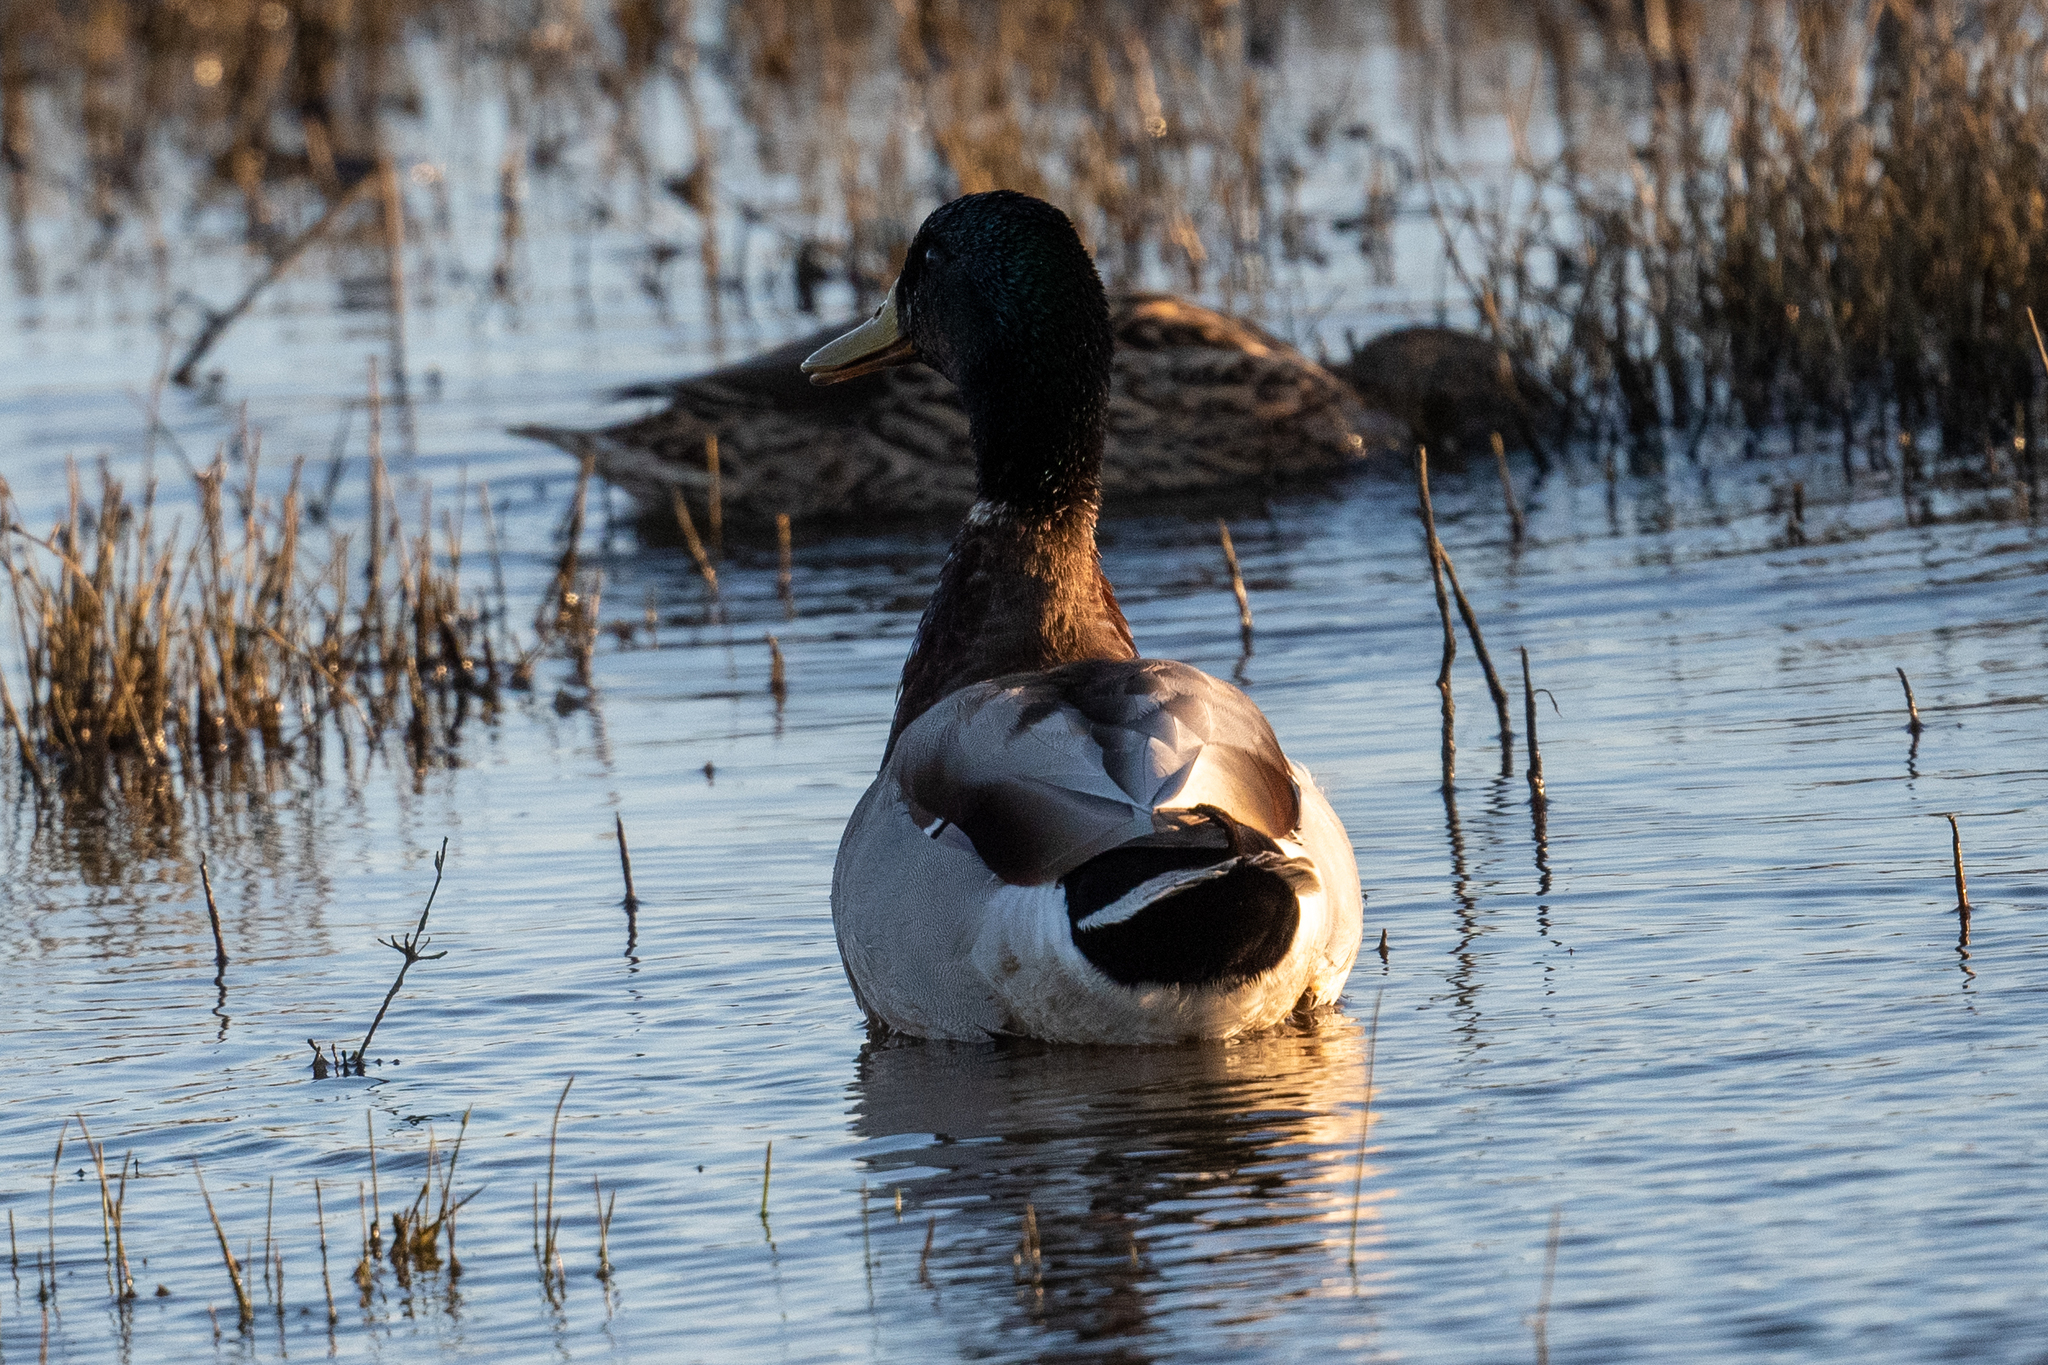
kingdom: Animalia
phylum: Chordata
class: Aves
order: Anseriformes
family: Anatidae
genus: Anas
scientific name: Anas platyrhynchos
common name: Mallard
